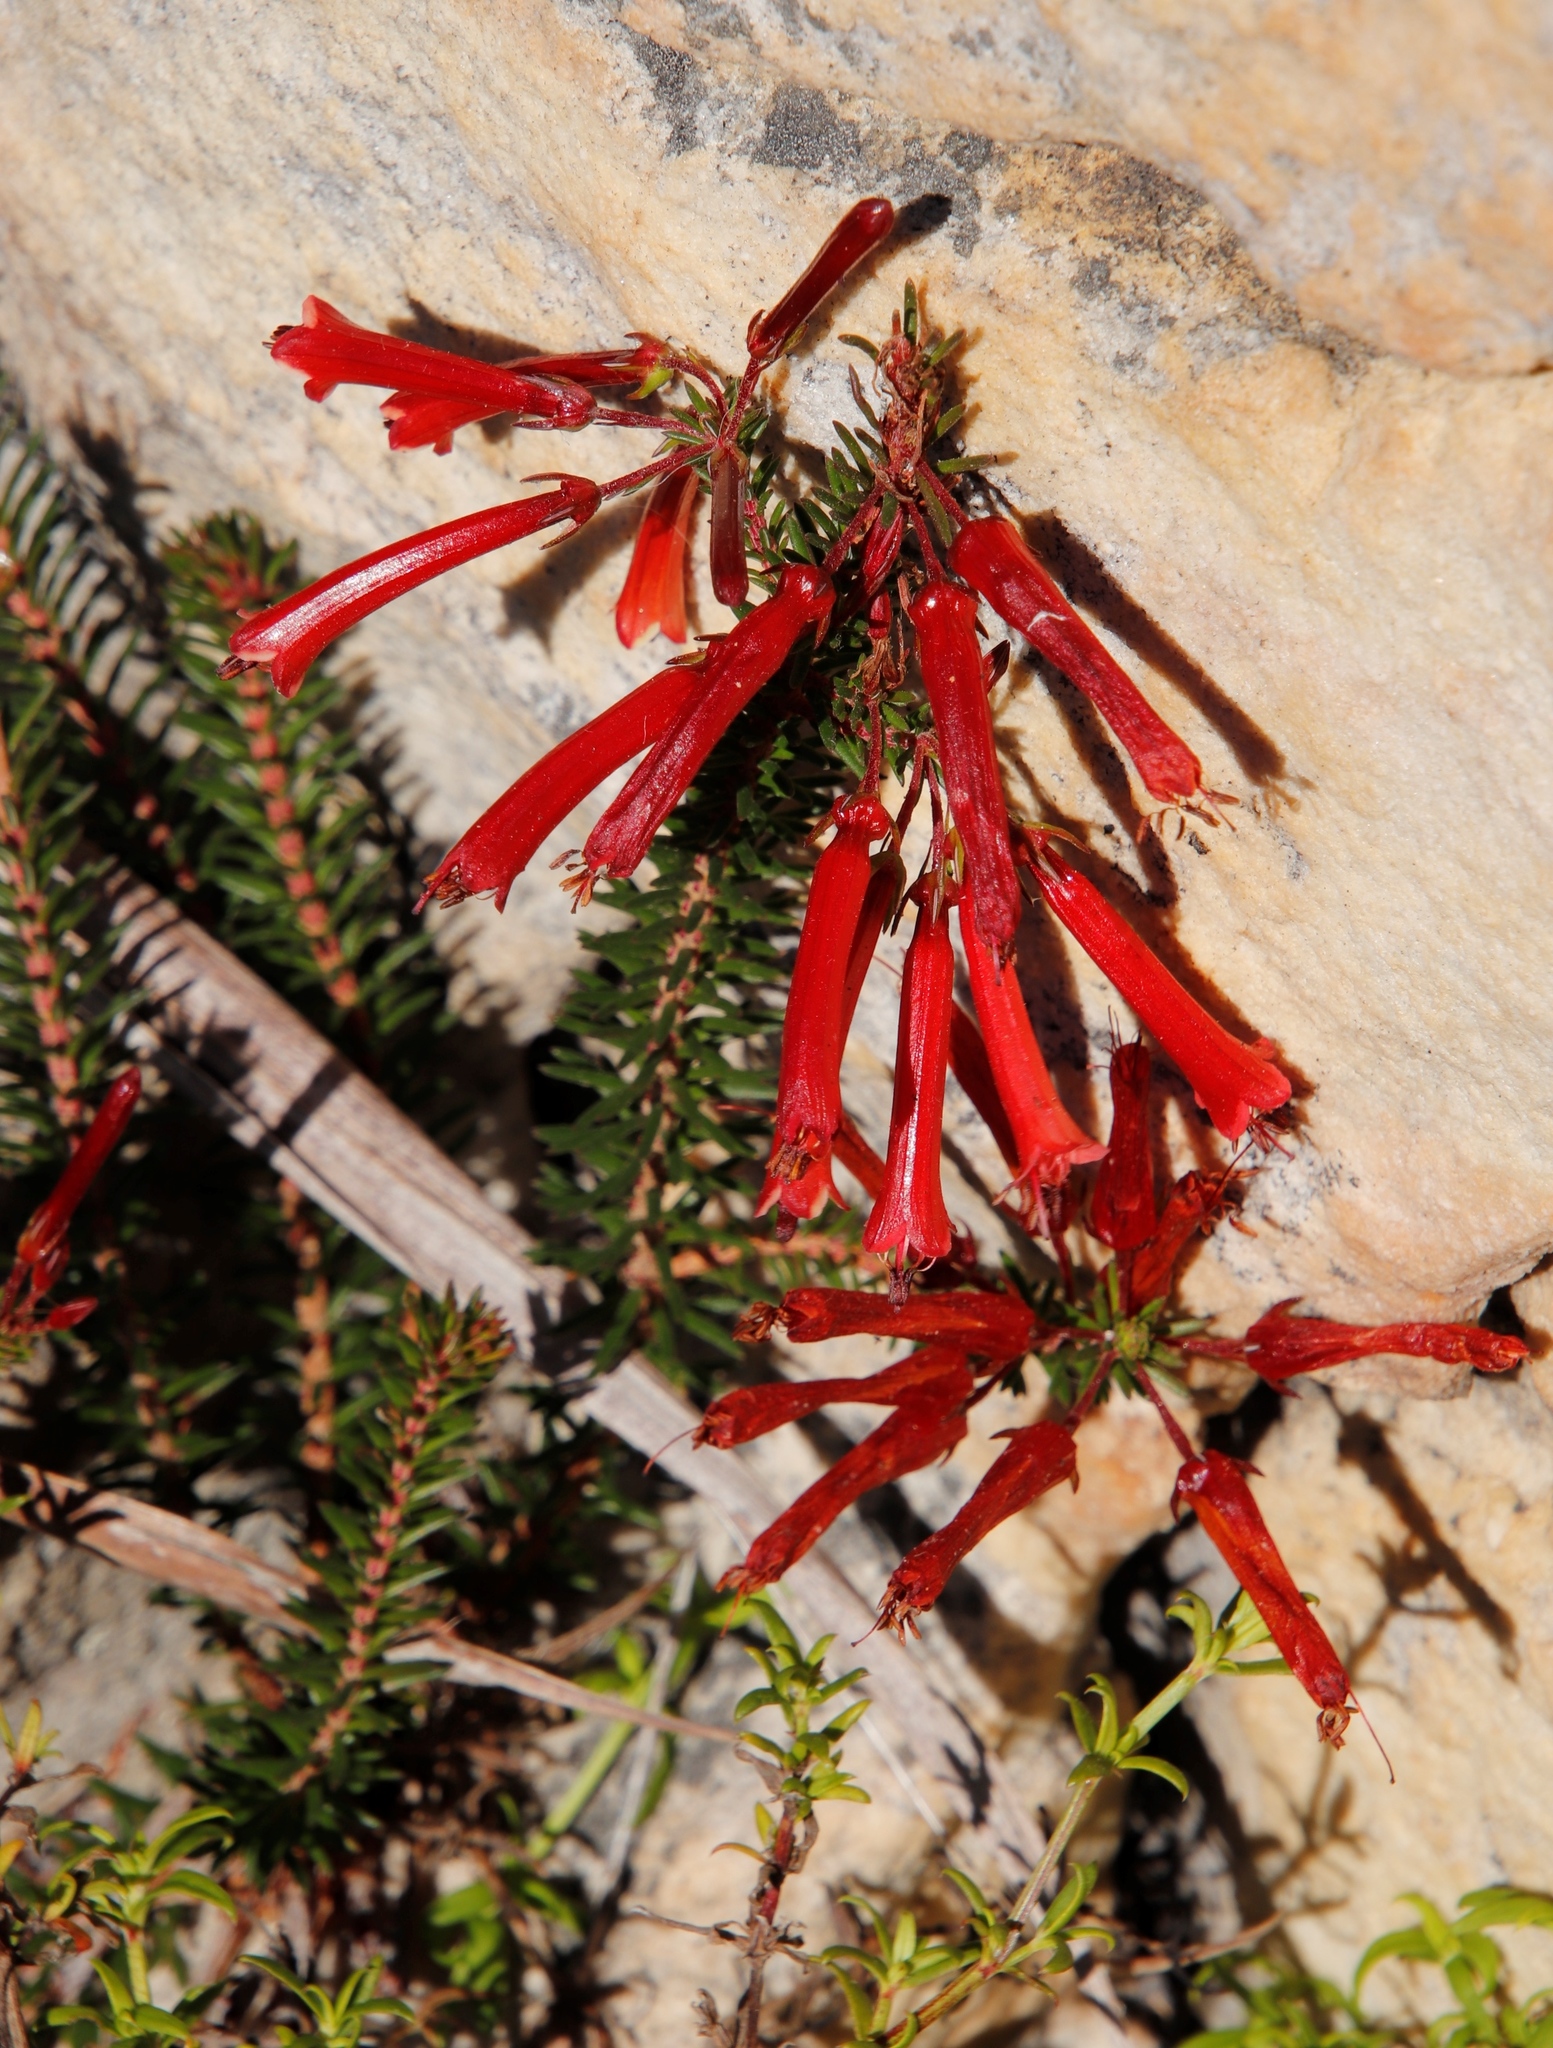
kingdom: Plantae
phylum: Tracheophyta
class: Magnoliopsida
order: Ericales
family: Ericaceae
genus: Erica
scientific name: Erica nevillei
